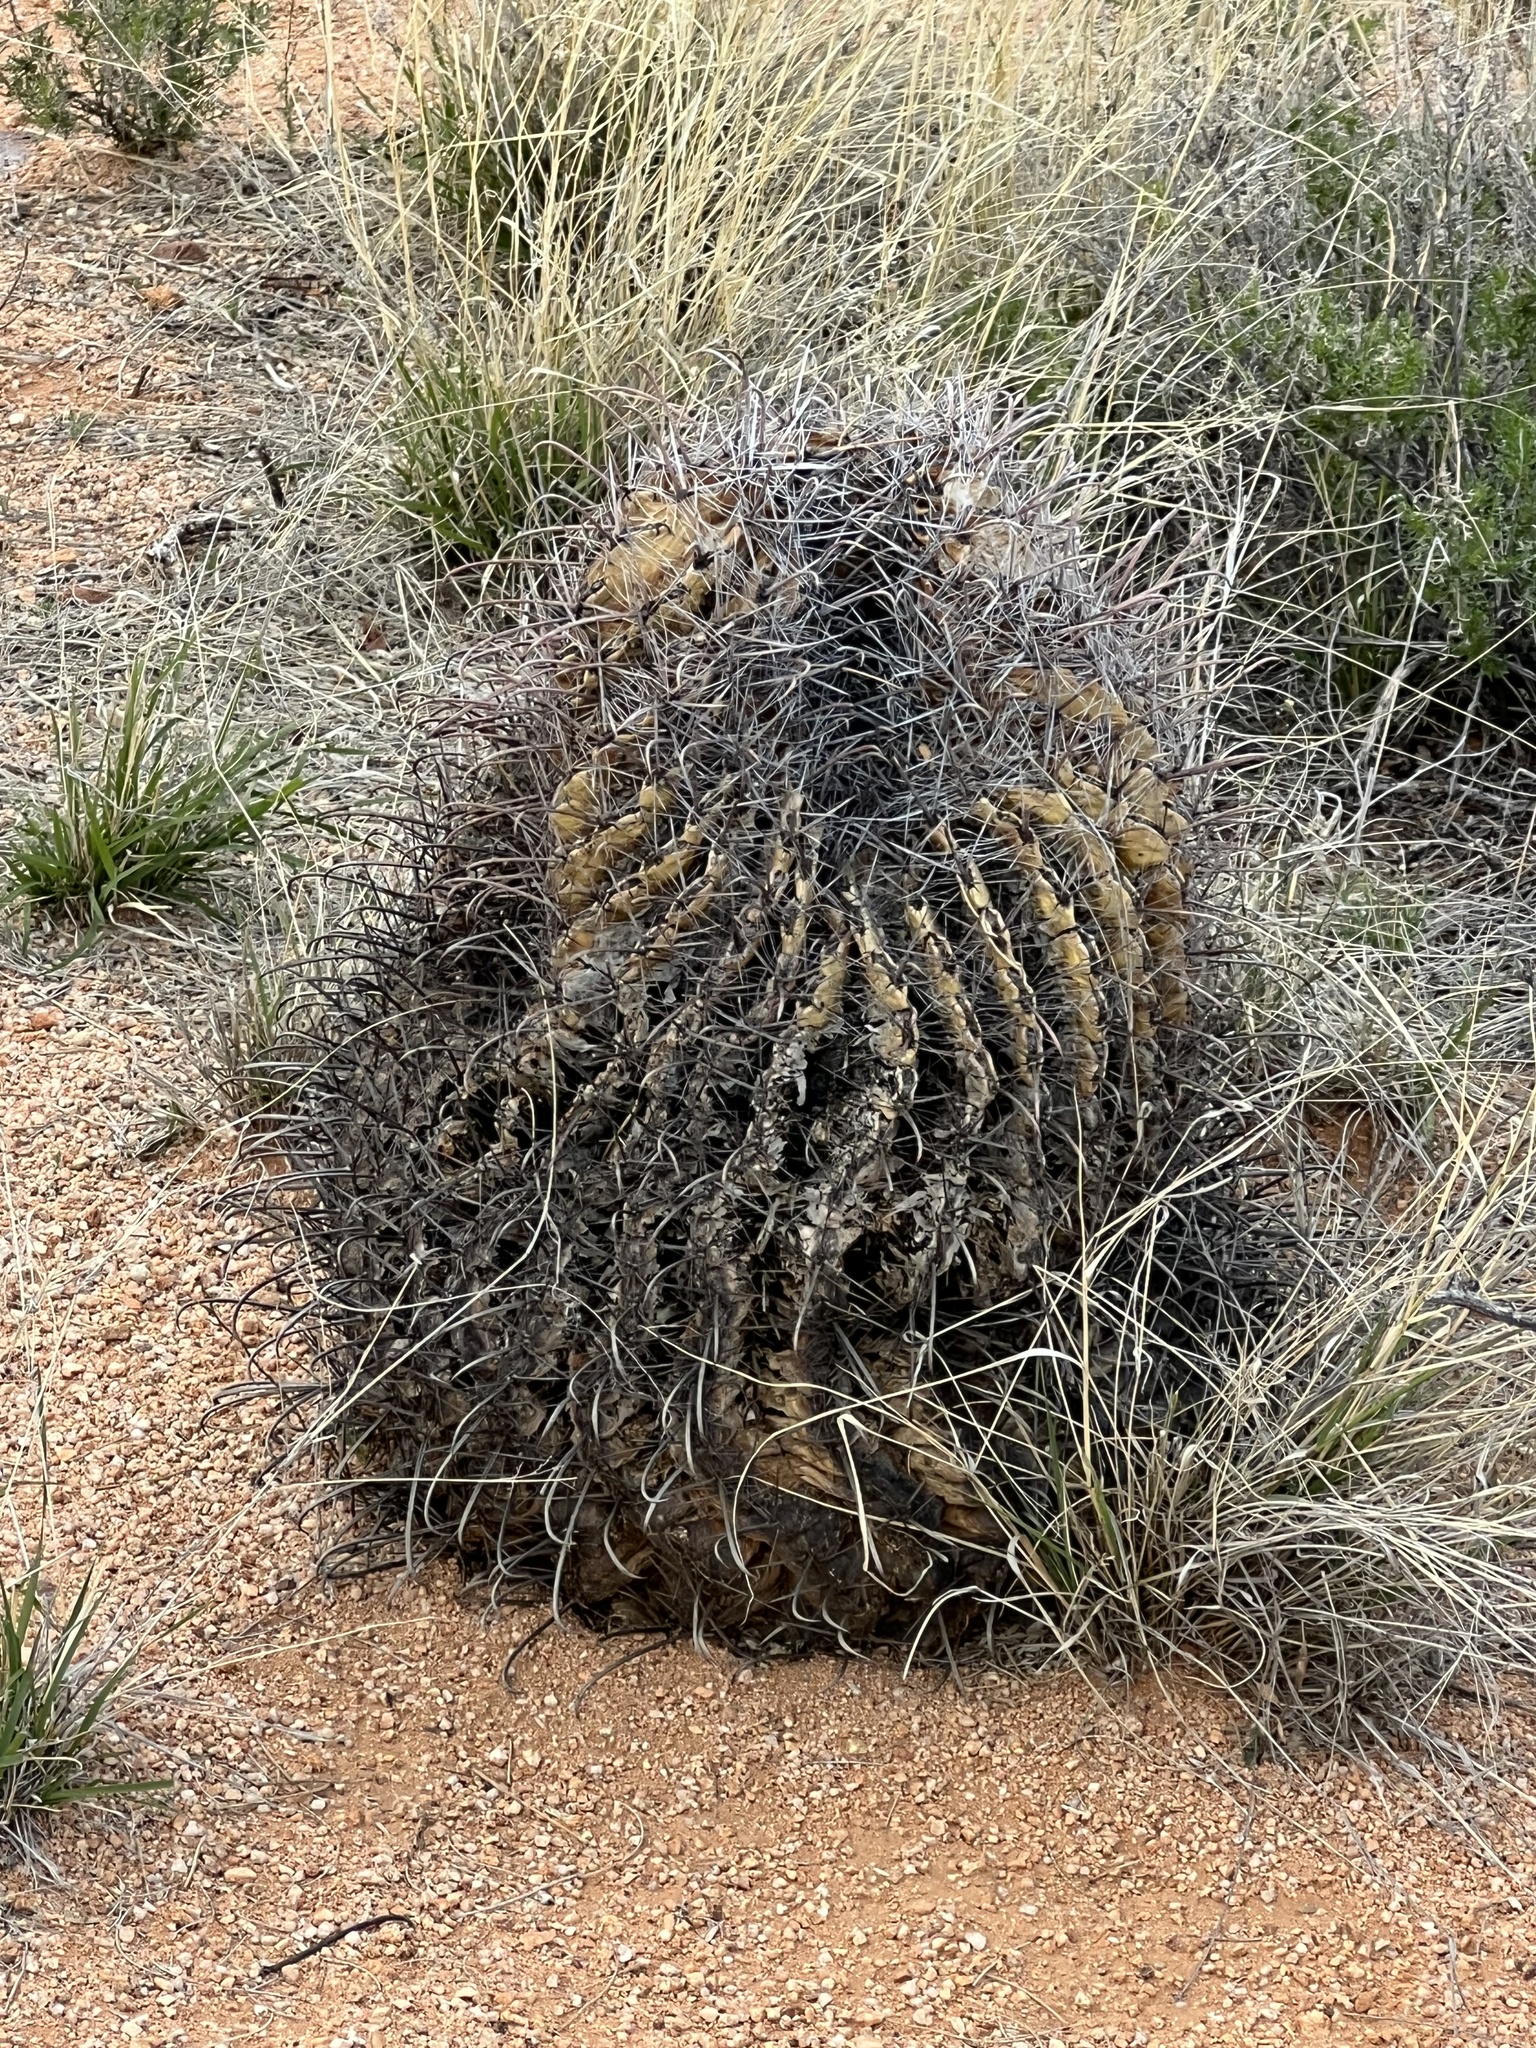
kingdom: Plantae
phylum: Tracheophyta
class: Magnoliopsida
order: Caryophyllales
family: Cactaceae
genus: Ferocactus
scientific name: Ferocactus wislizeni
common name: Candy barrel cactus
